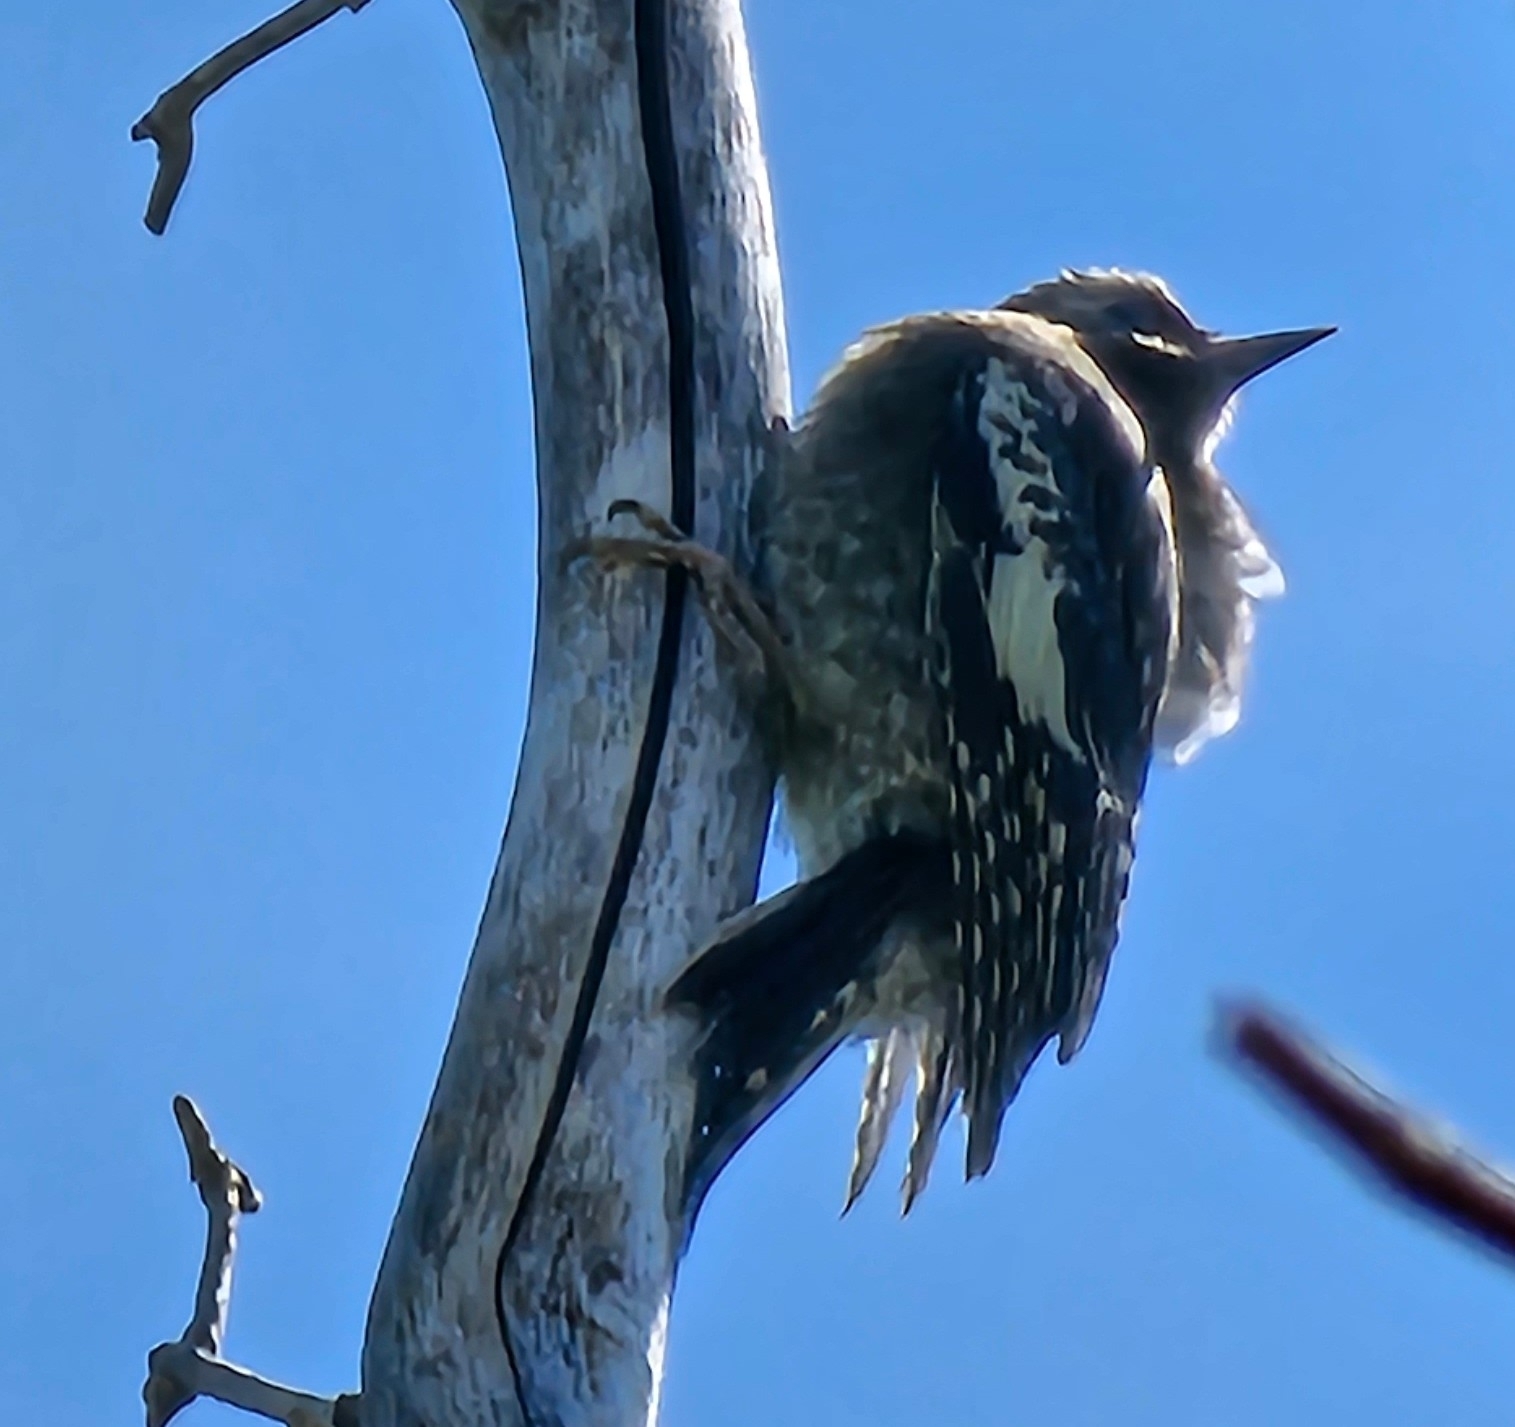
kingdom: Animalia
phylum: Chordata
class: Aves
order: Piciformes
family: Picidae
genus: Sphyrapicus
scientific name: Sphyrapicus varius
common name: Yellow-bellied sapsucker
